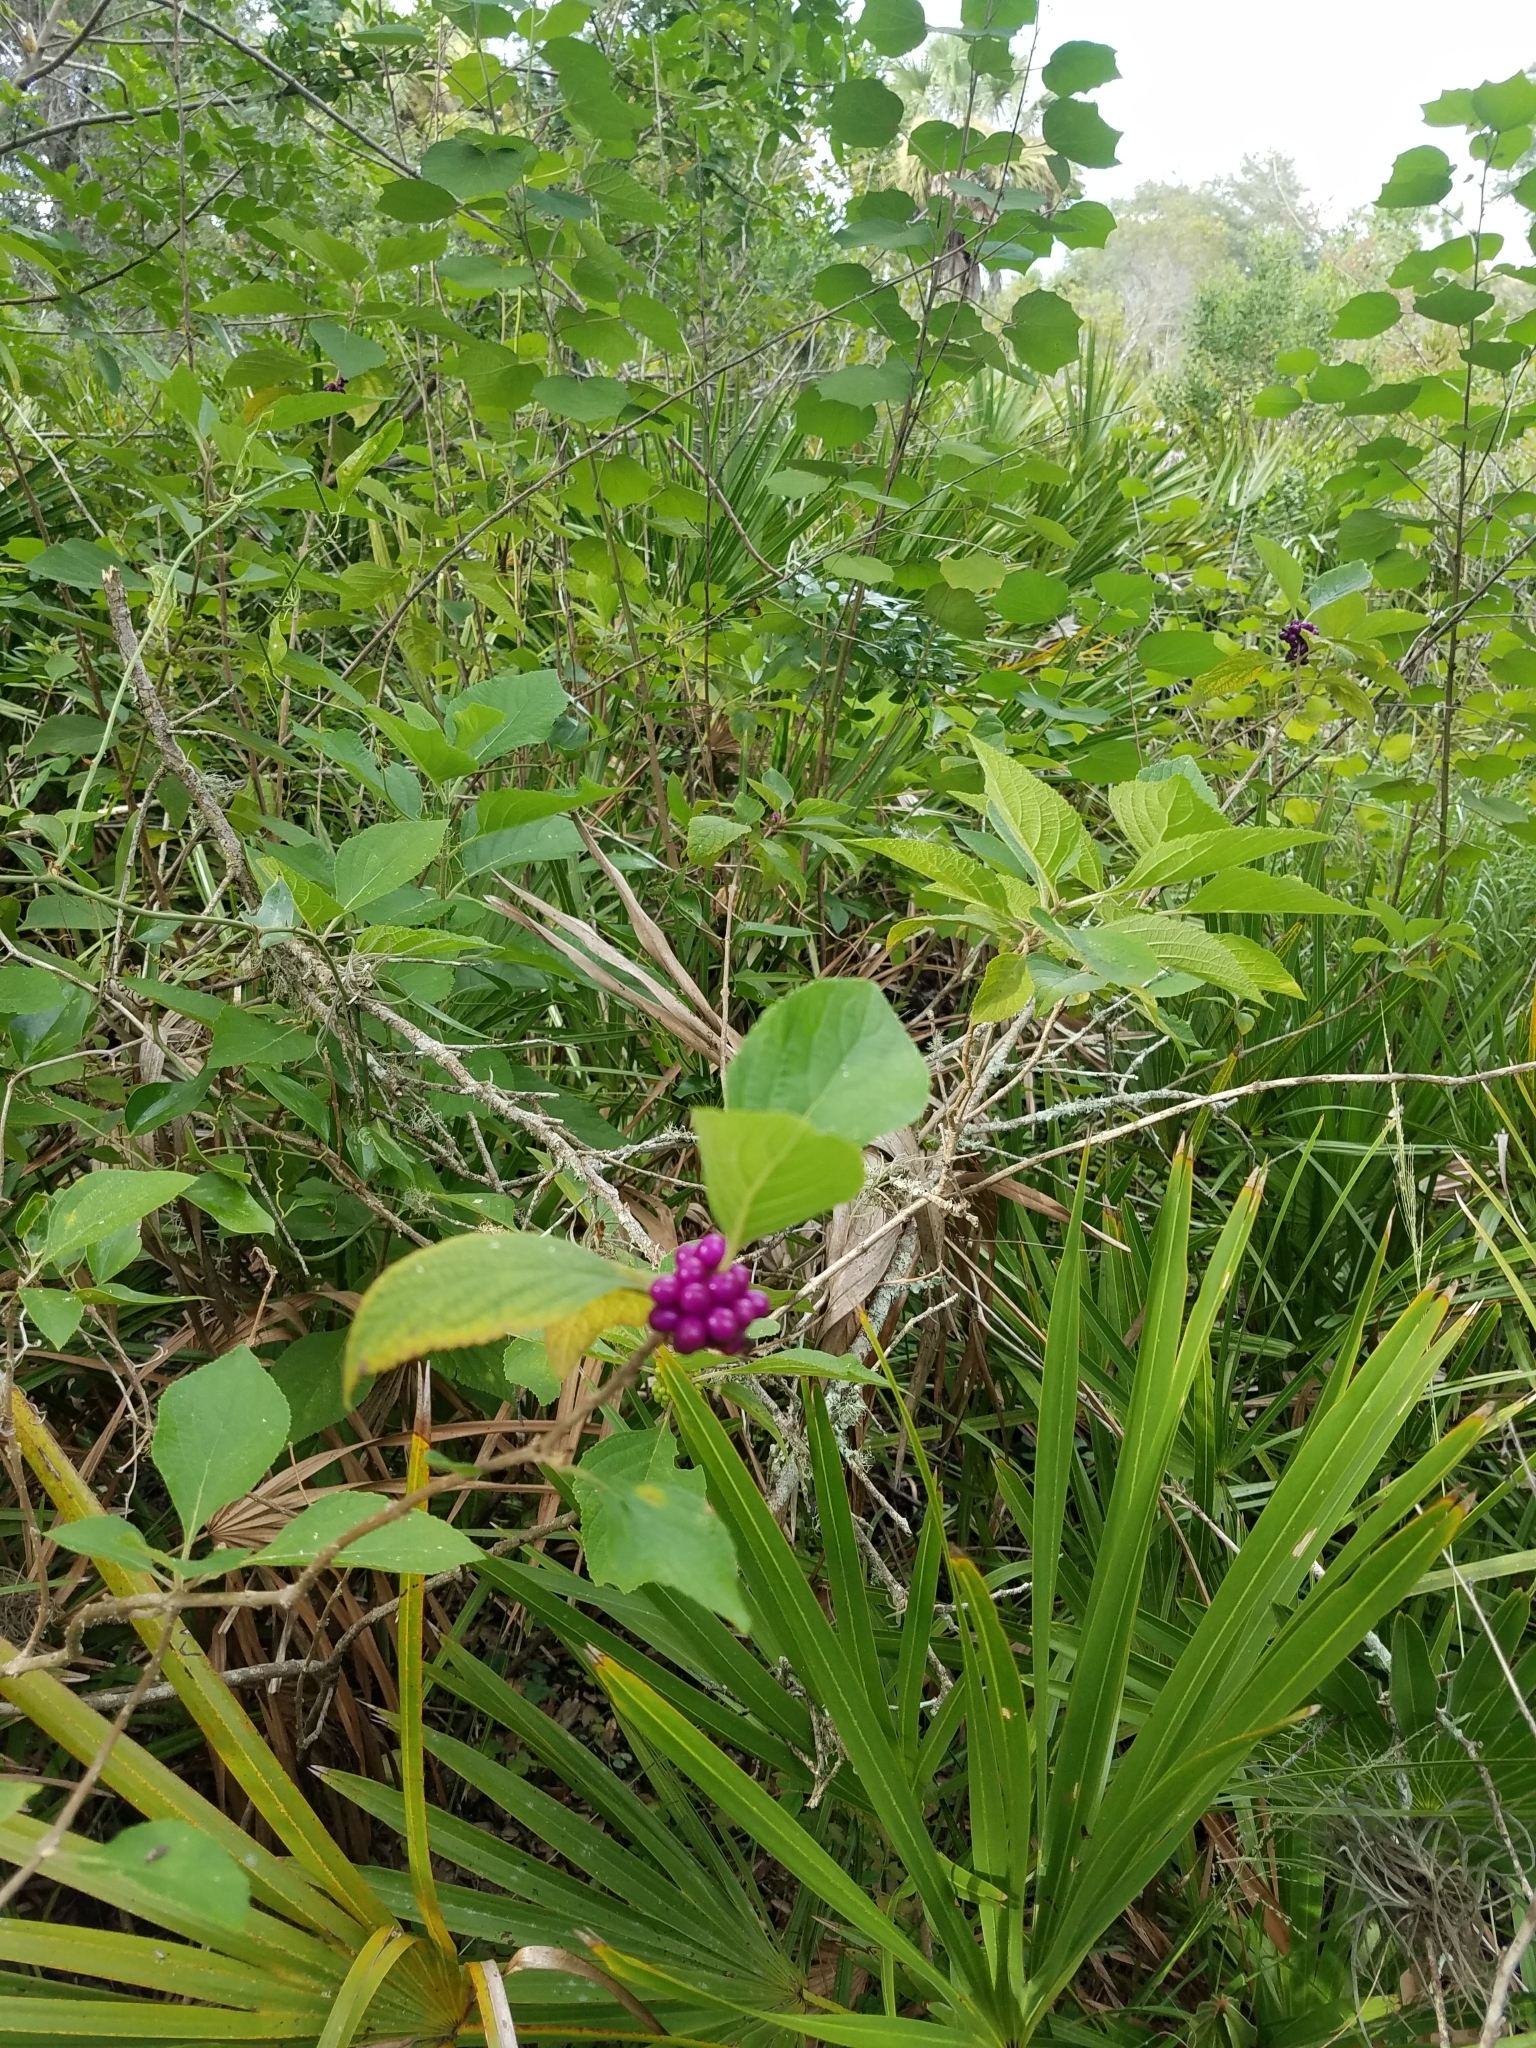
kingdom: Plantae
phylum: Tracheophyta
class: Magnoliopsida
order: Lamiales
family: Lamiaceae
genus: Callicarpa
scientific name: Callicarpa americana
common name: American beautyberry
